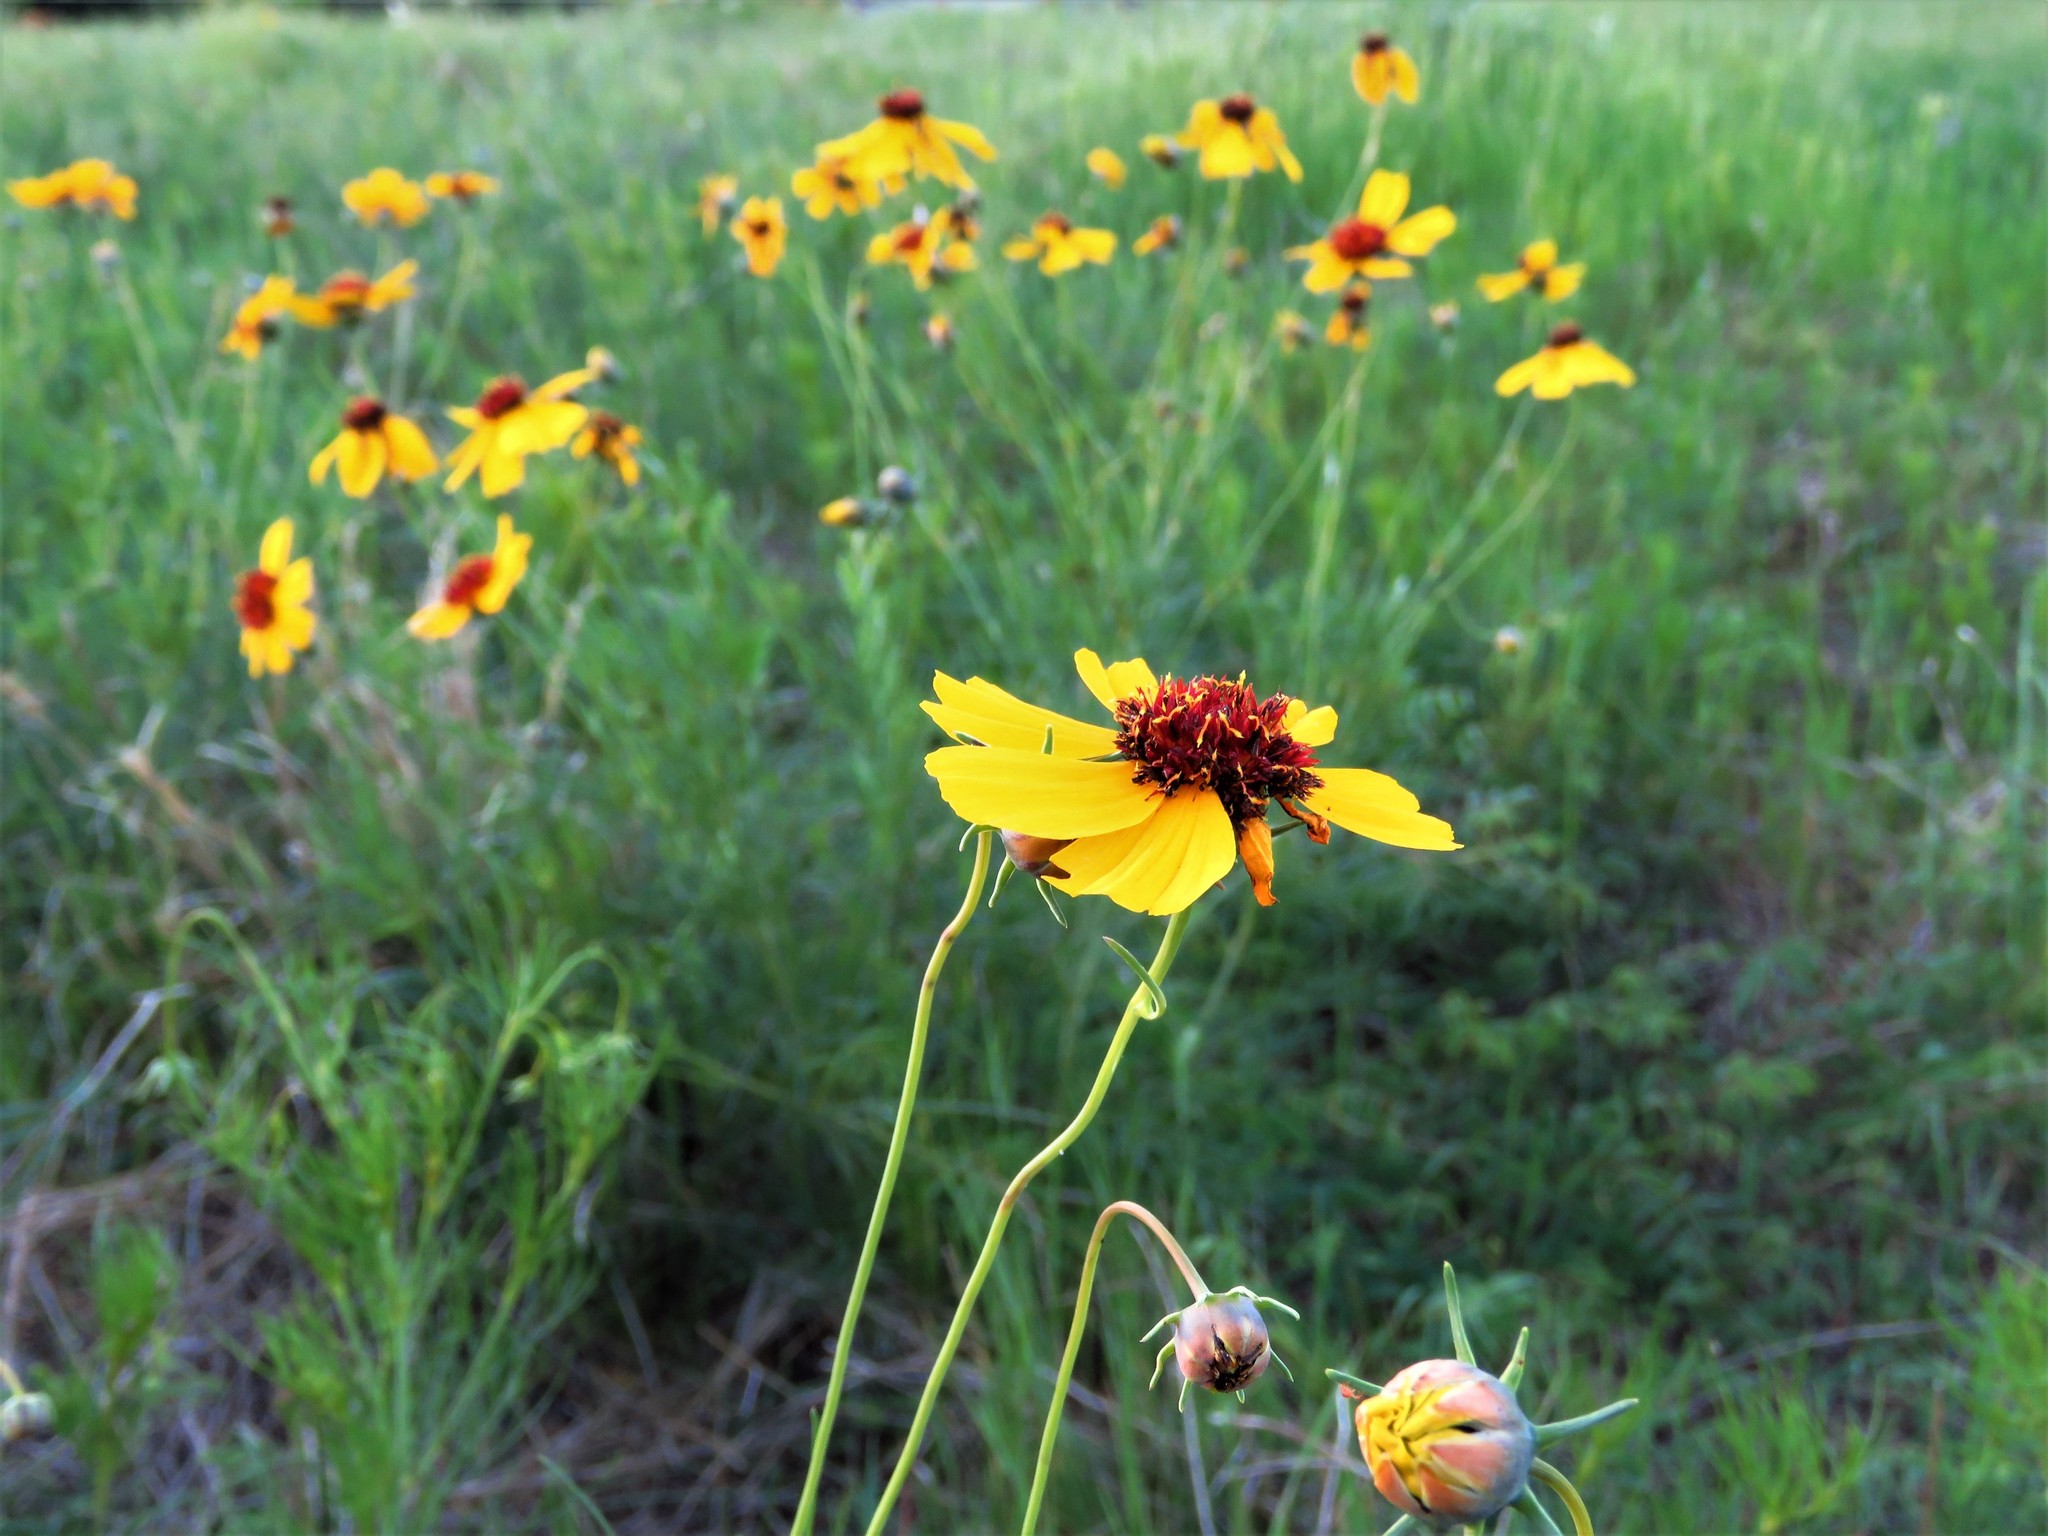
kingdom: Plantae
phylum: Tracheophyta
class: Magnoliopsida
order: Asterales
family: Asteraceae
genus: Thelesperma
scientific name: Thelesperma filifolium
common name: Stiff greenthread
